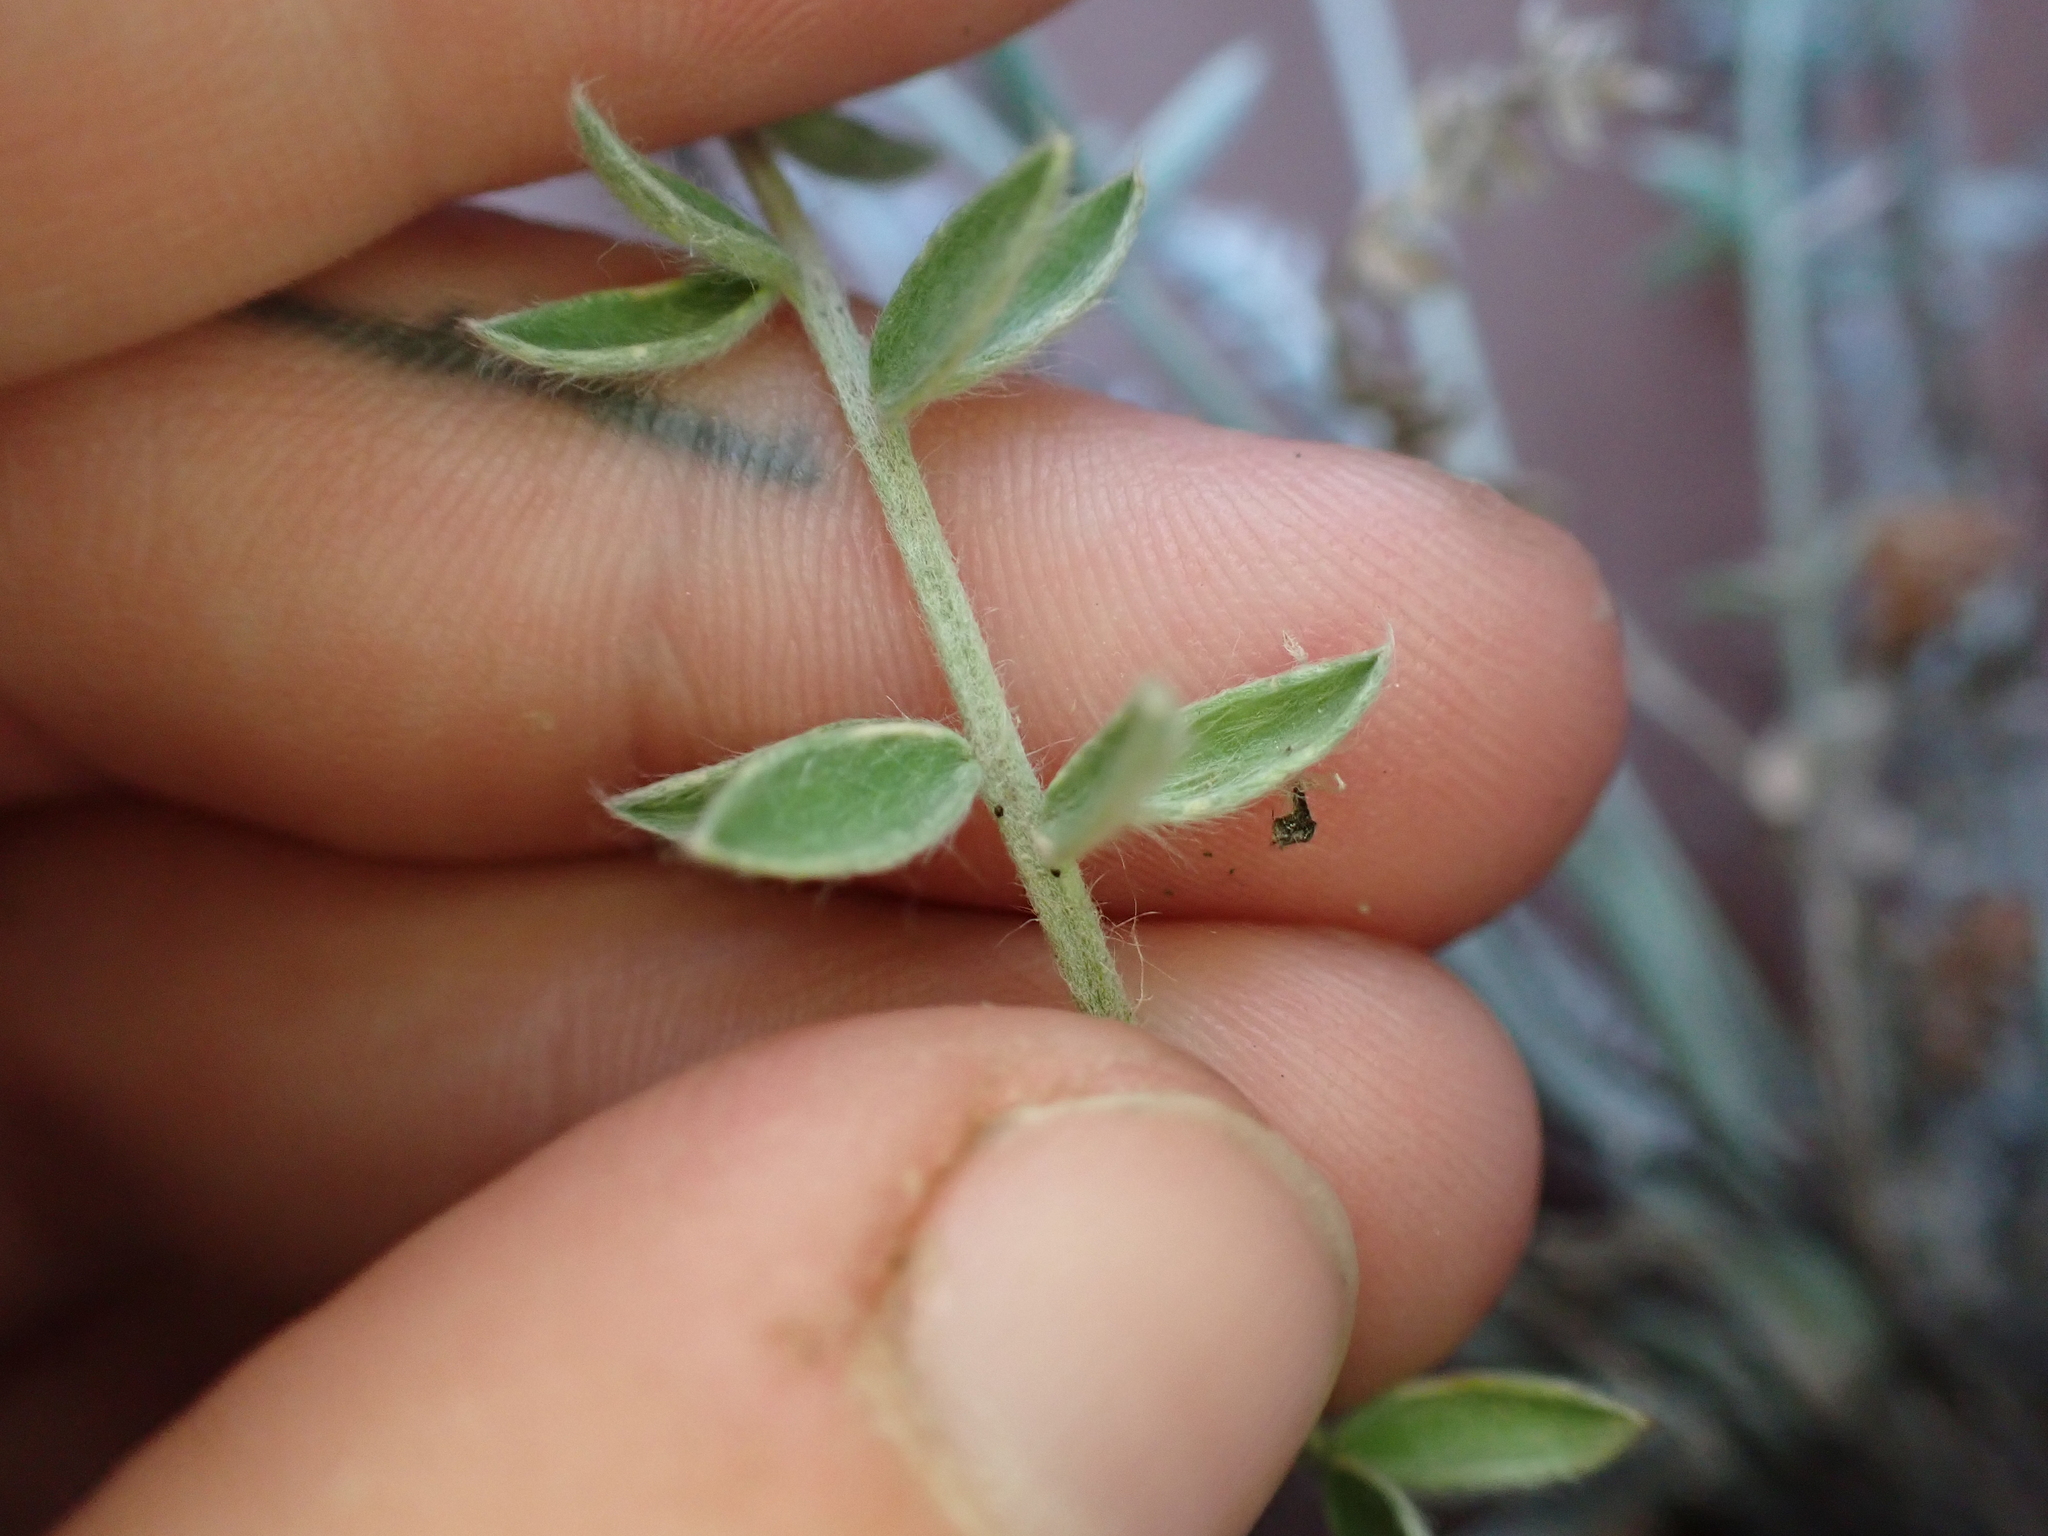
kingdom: Plantae
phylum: Tracheophyta
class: Magnoliopsida
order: Fabales
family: Fabaceae
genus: Oxytropis
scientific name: Oxytropis splendens
